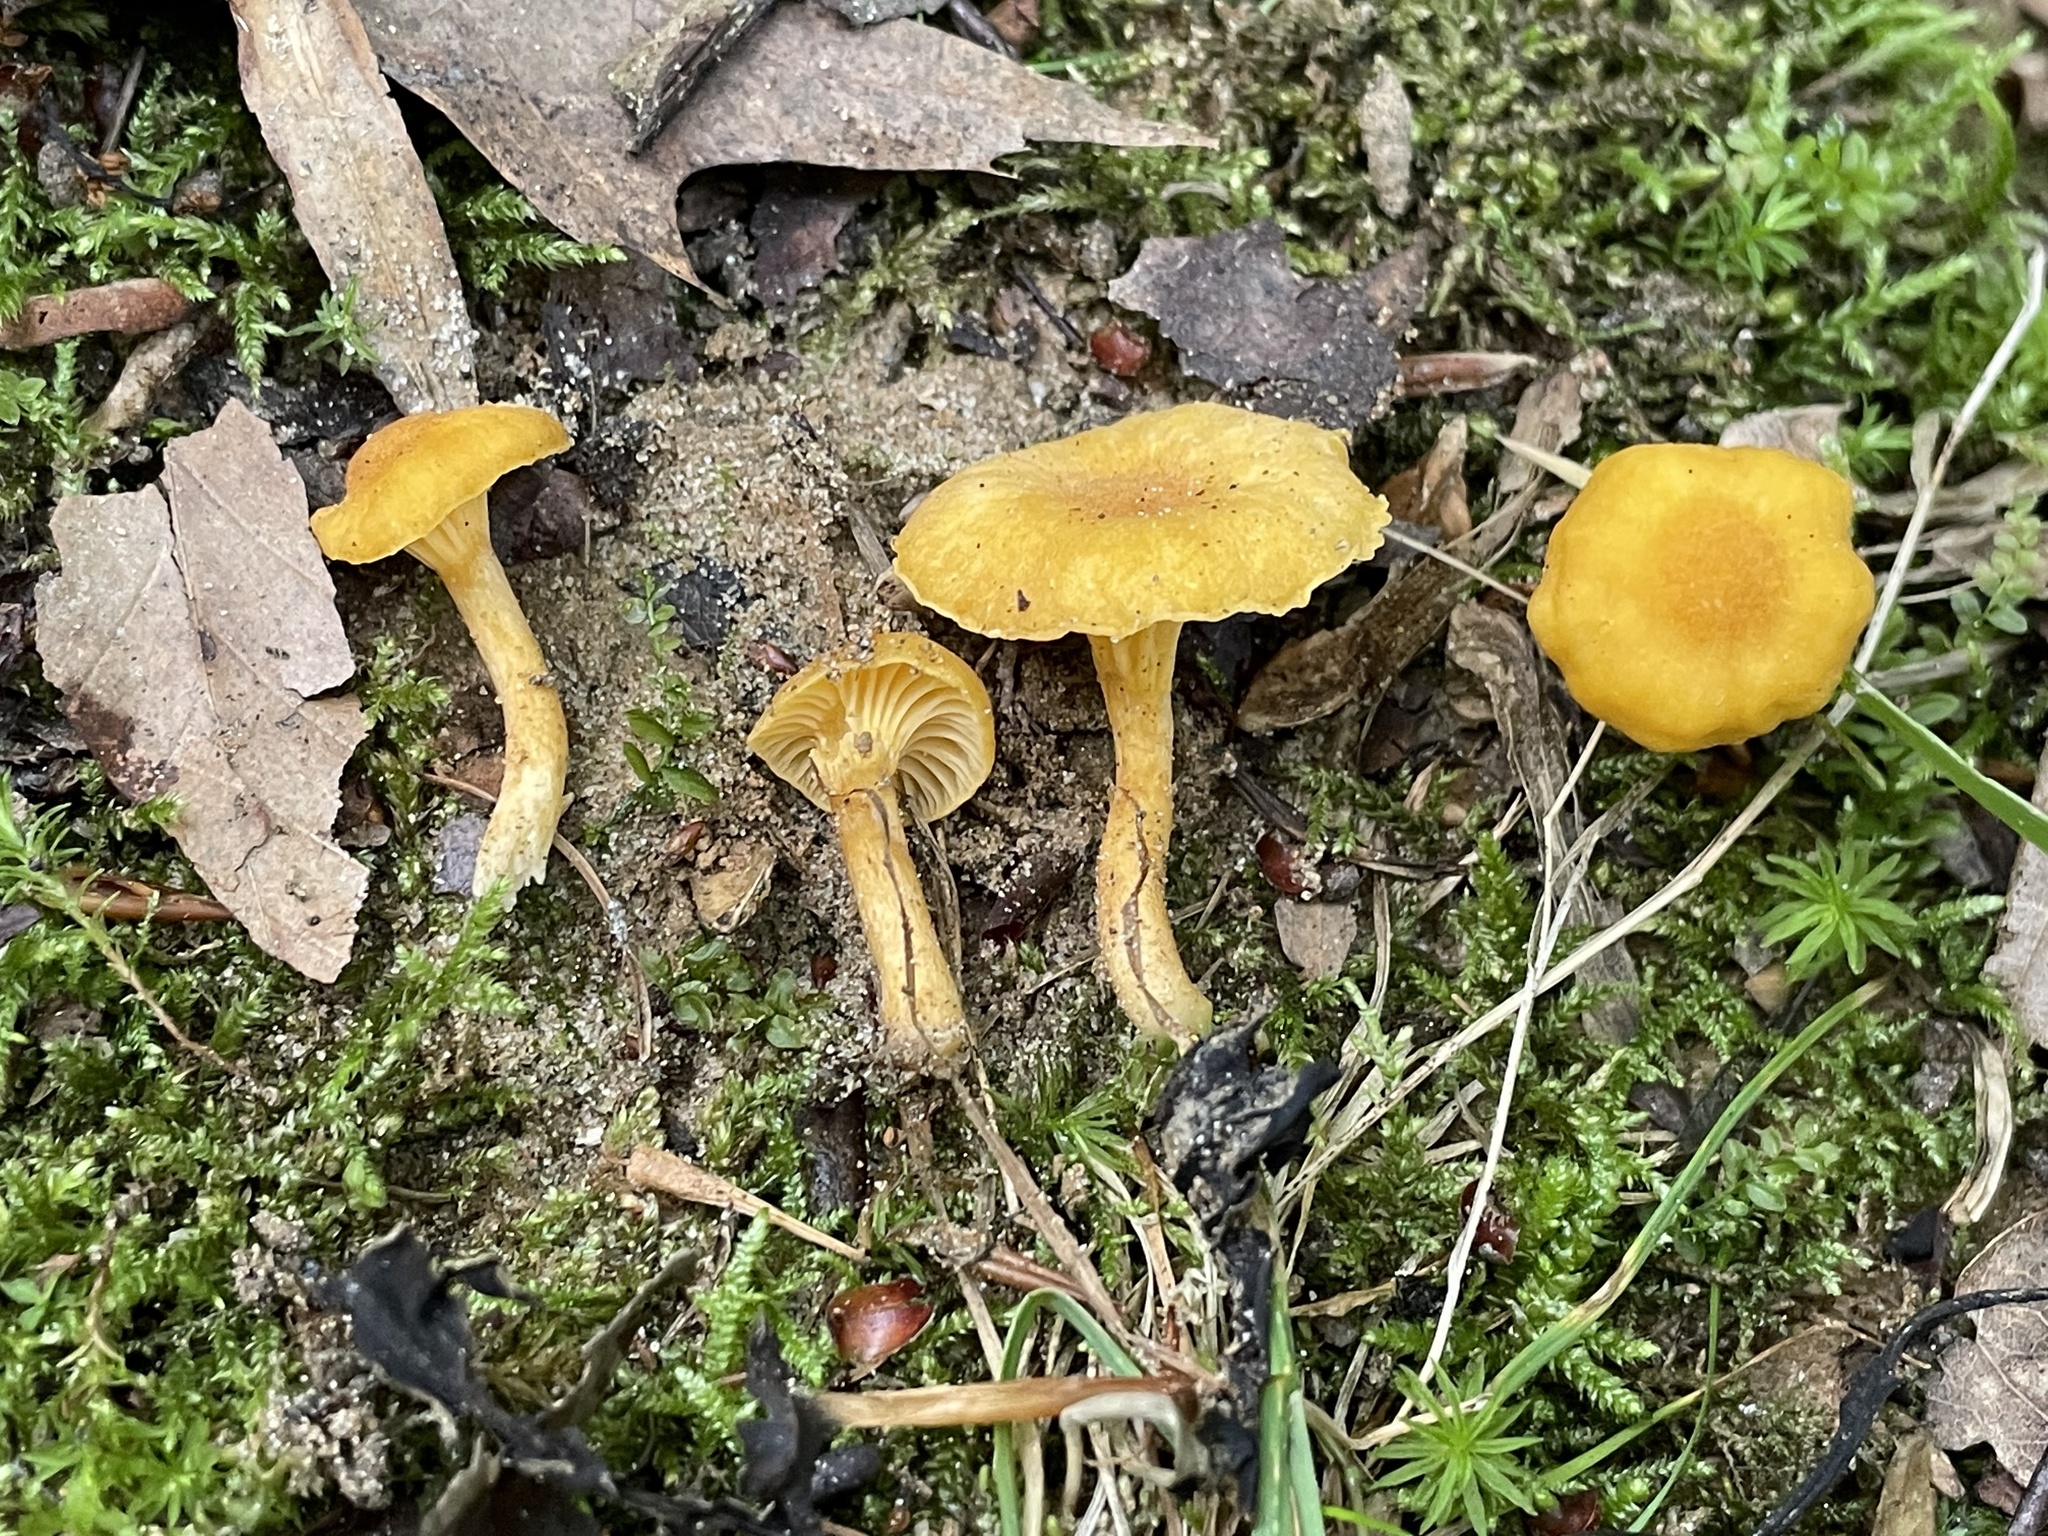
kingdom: Fungi
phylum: Basidiomycota
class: Agaricomycetes
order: Cantharellales
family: Hydnaceae
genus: Cantharellus
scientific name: Cantharellus appalachiensis
